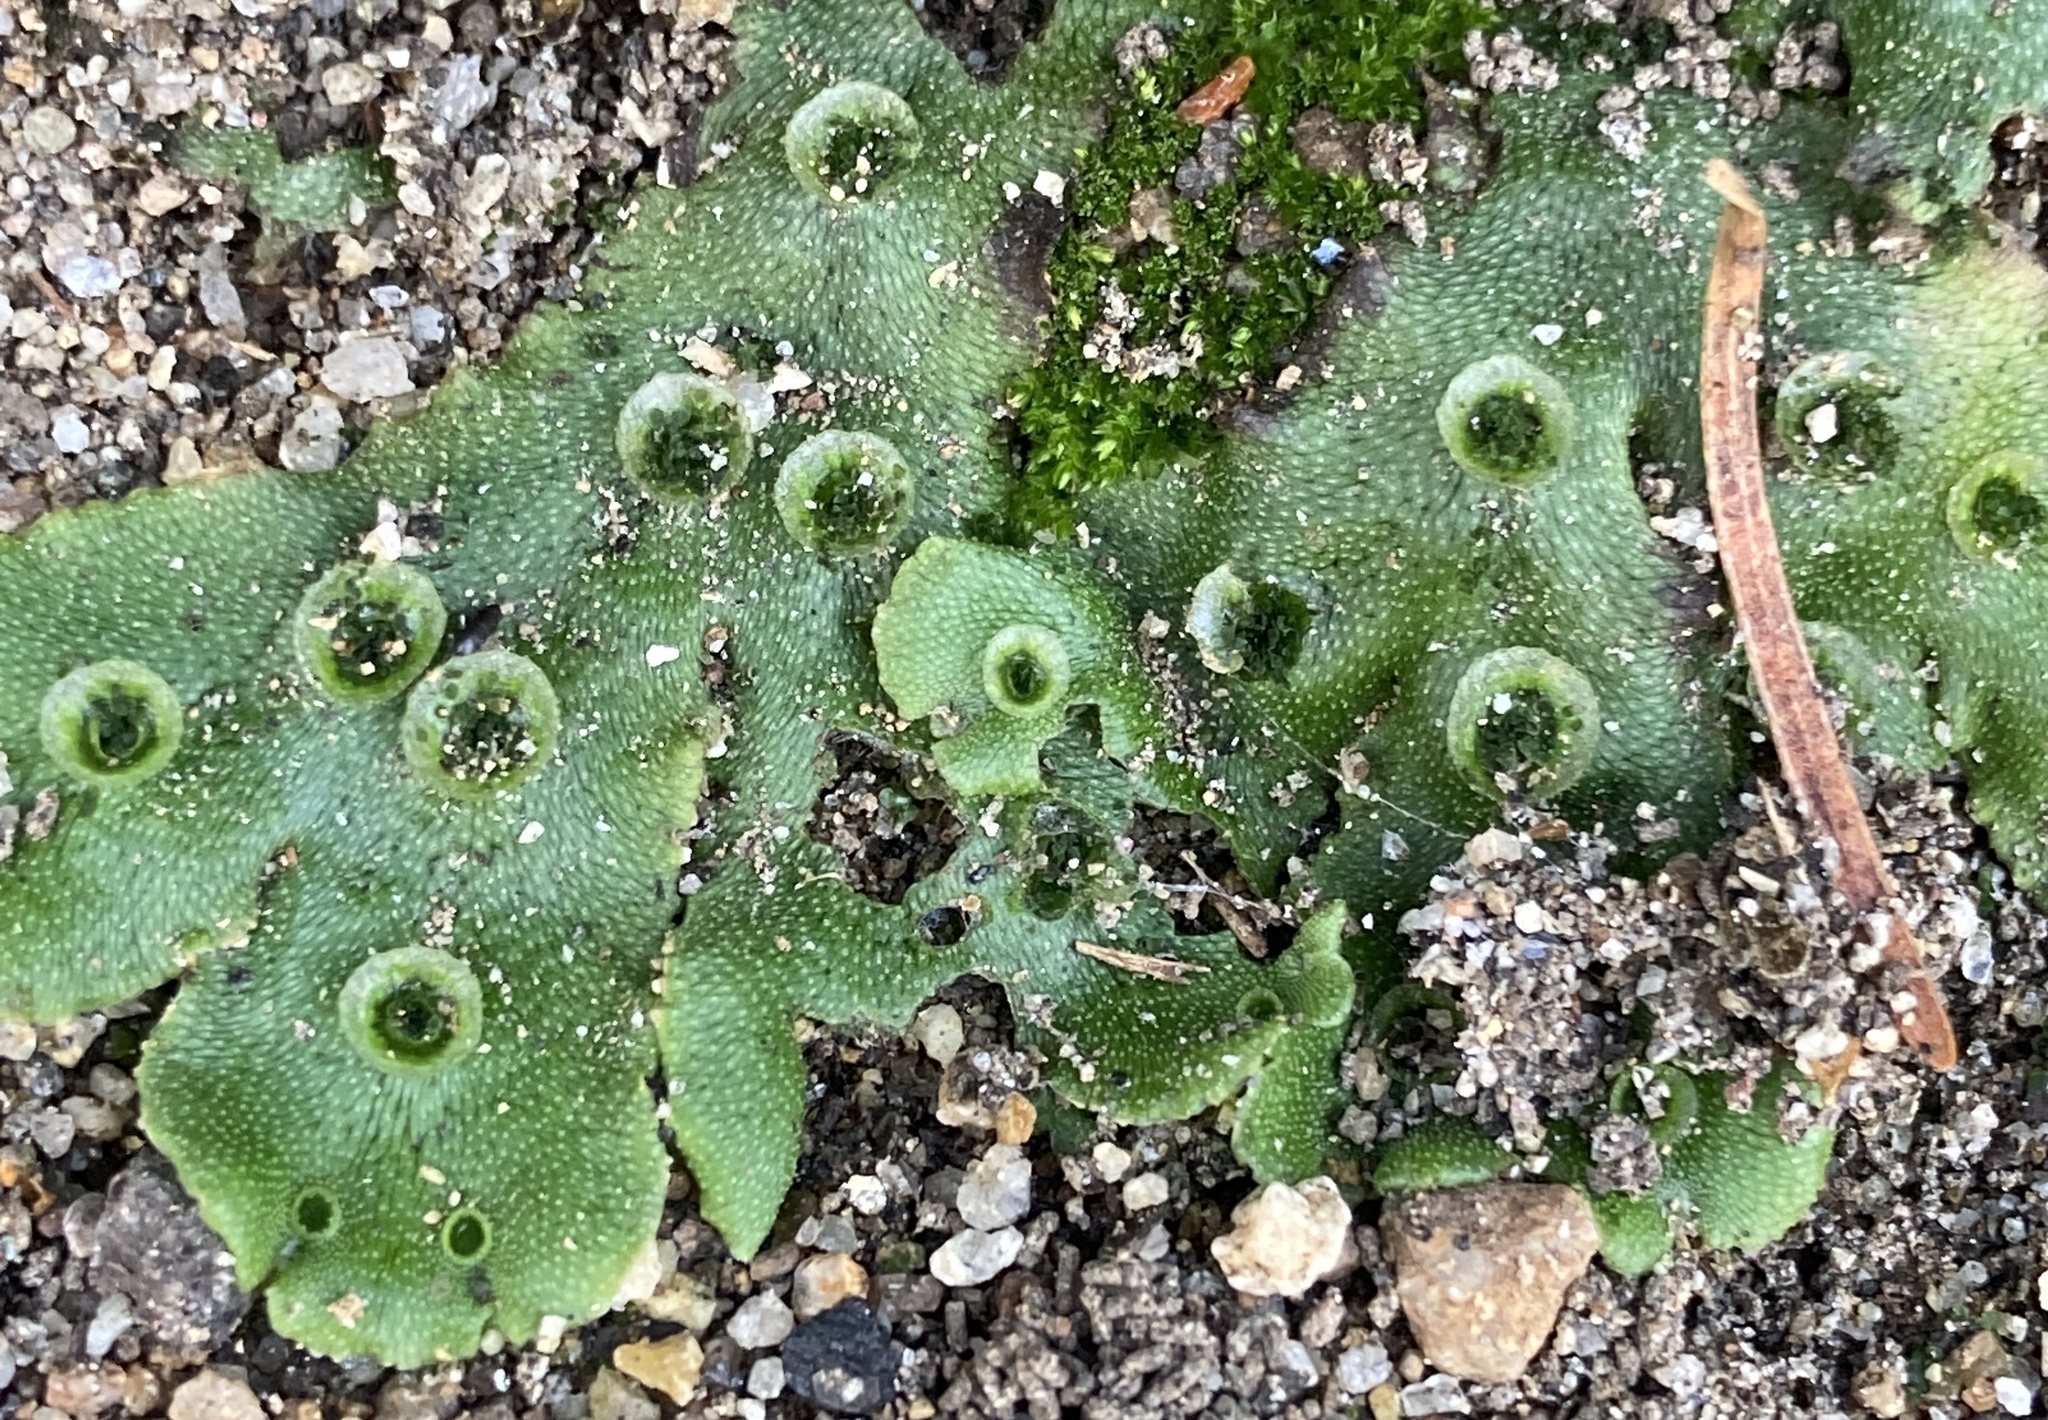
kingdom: Plantae
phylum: Marchantiophyta
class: Marchantiopsida
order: Marchantiales
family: Marchantiaceae
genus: Marchantia
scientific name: Marchantia polymorpha
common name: Common liverwort
